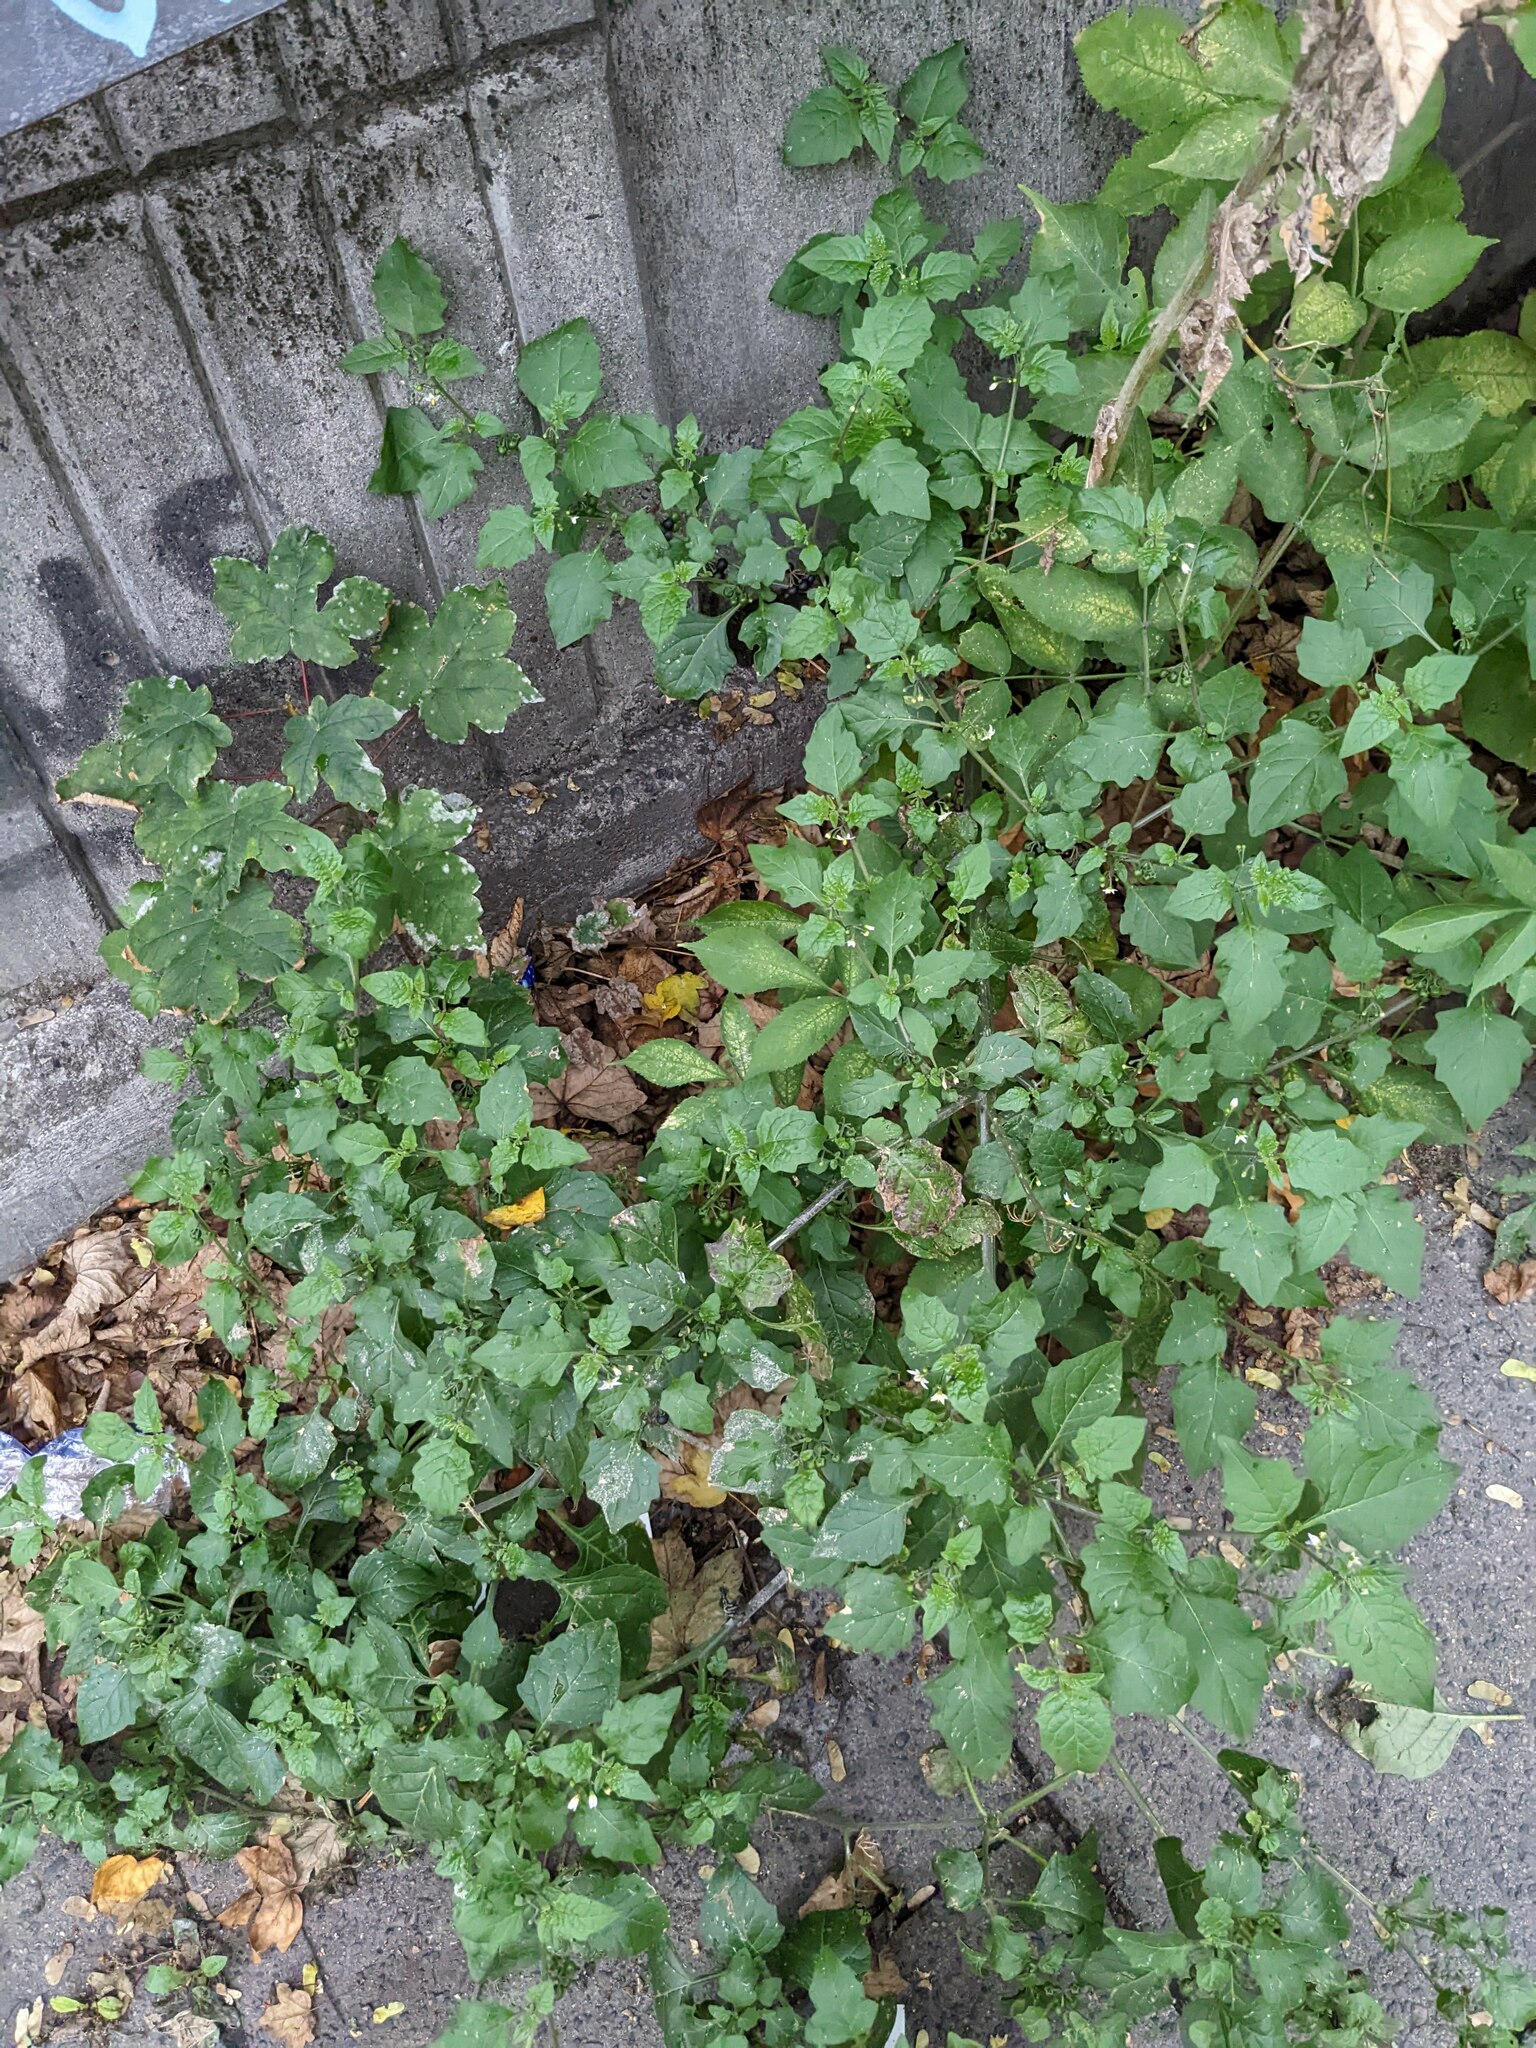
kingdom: Plantae
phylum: Tracheophyta
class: Magnoliopsida
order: Solanales
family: Solanaceae
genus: Solanum
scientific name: Solanum nigrum
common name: Black nightshade
